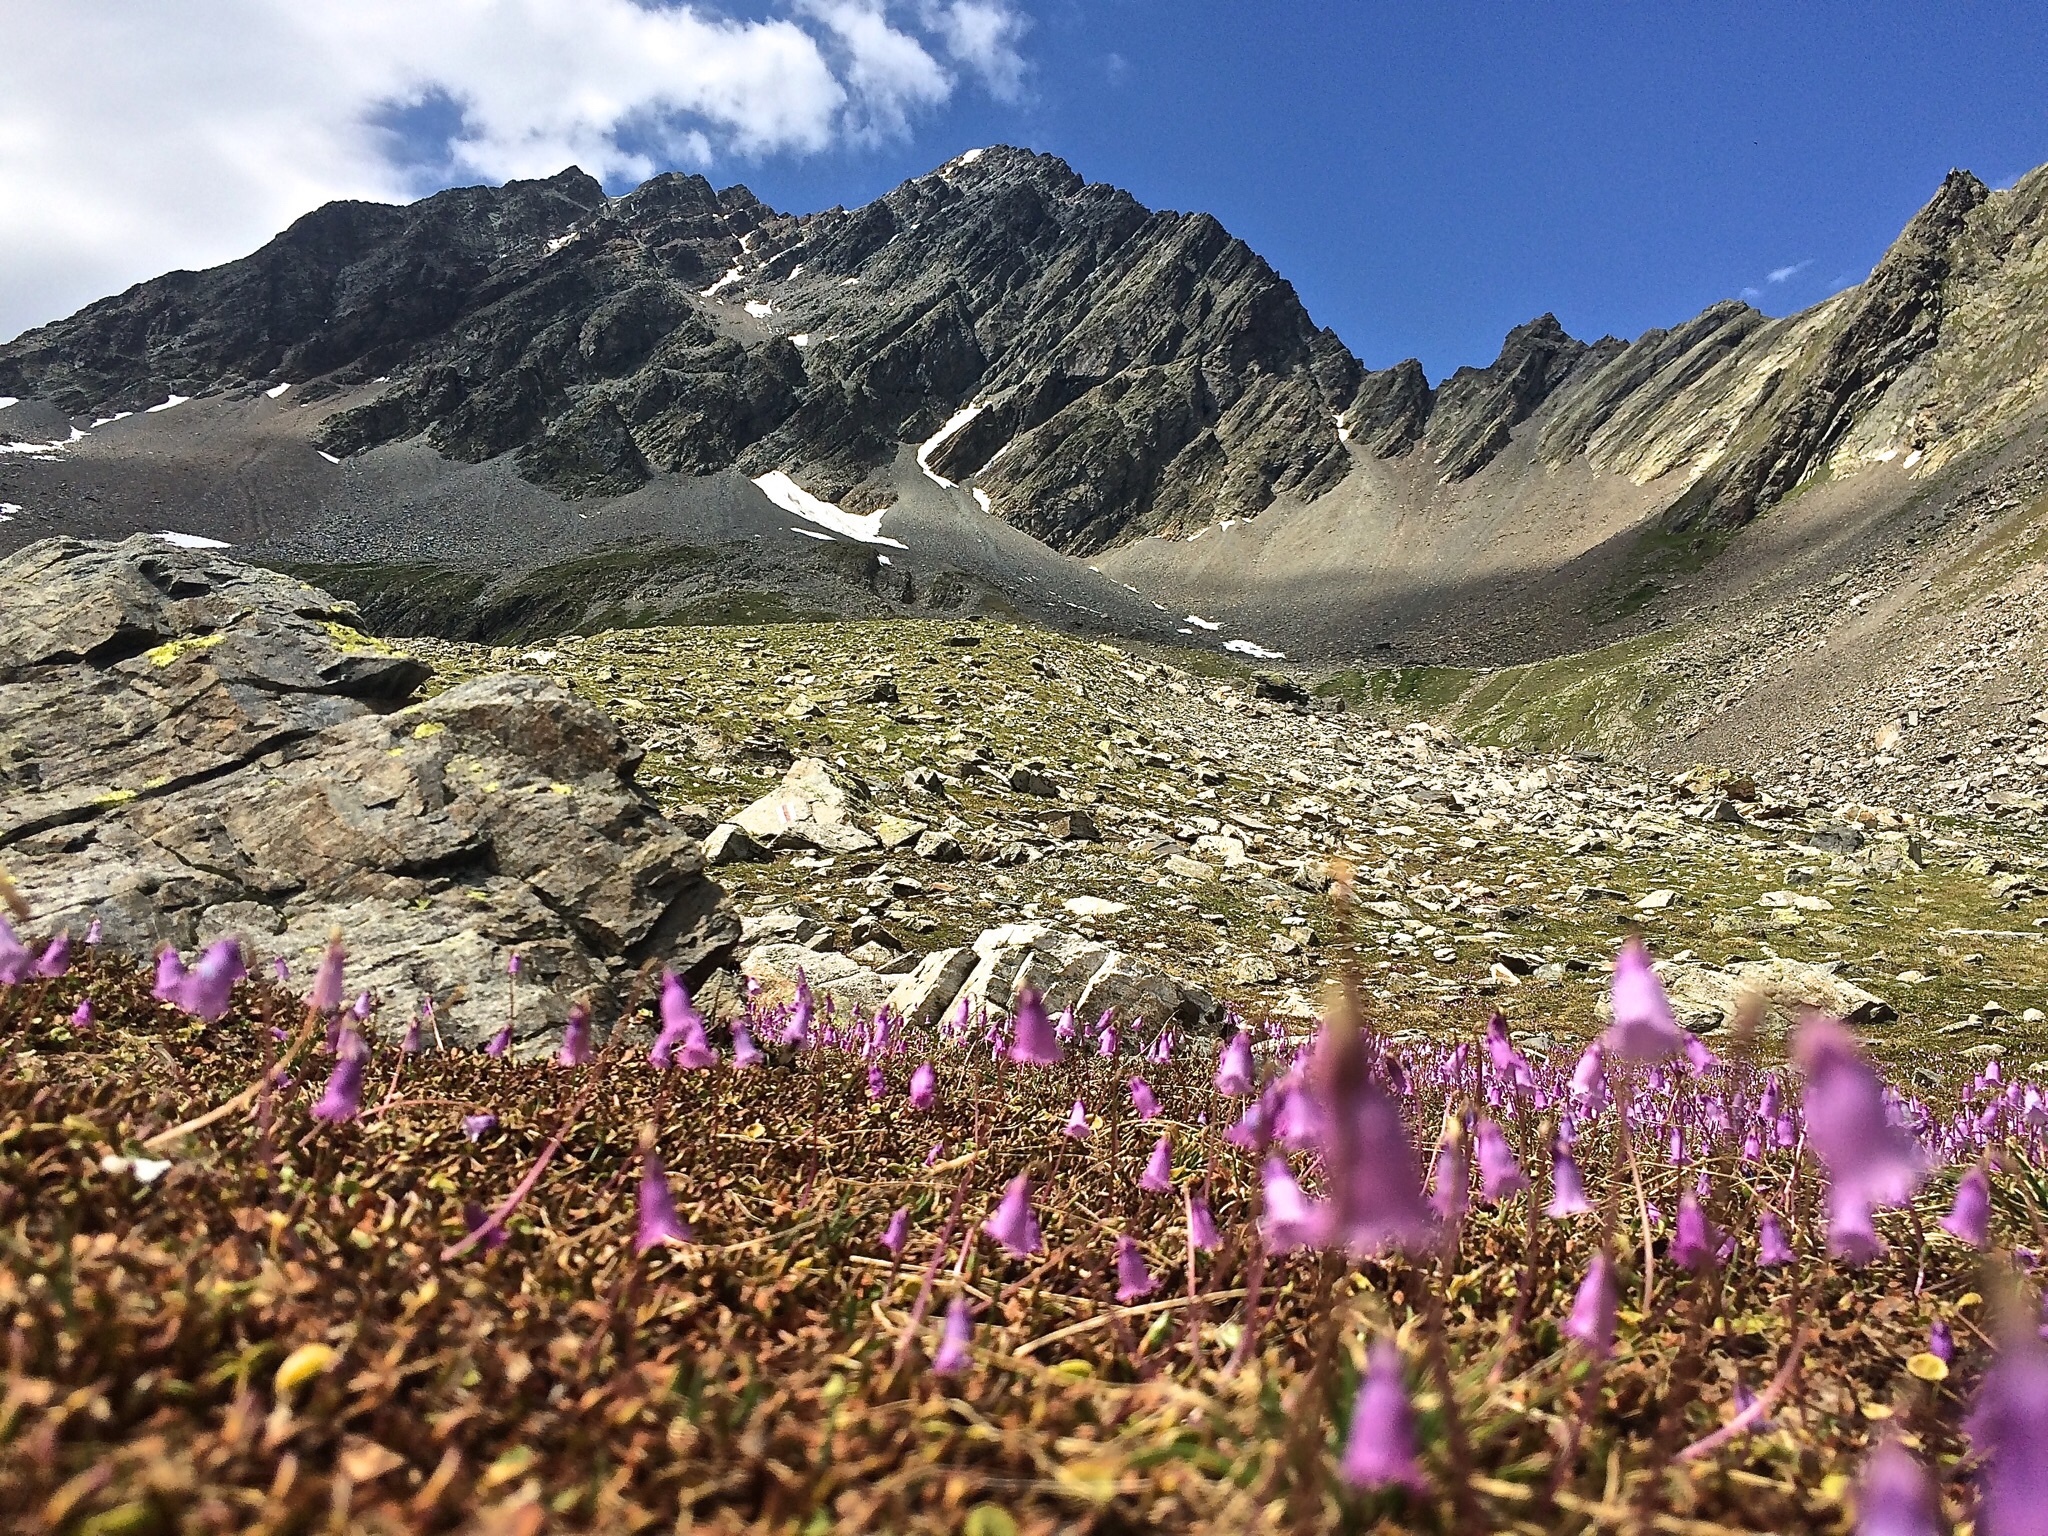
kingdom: Plantae
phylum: Tracheophyta
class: Magnoliopsida
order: Ericales
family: Primulaceae
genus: Soldanella
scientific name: Soldanella pusilla
